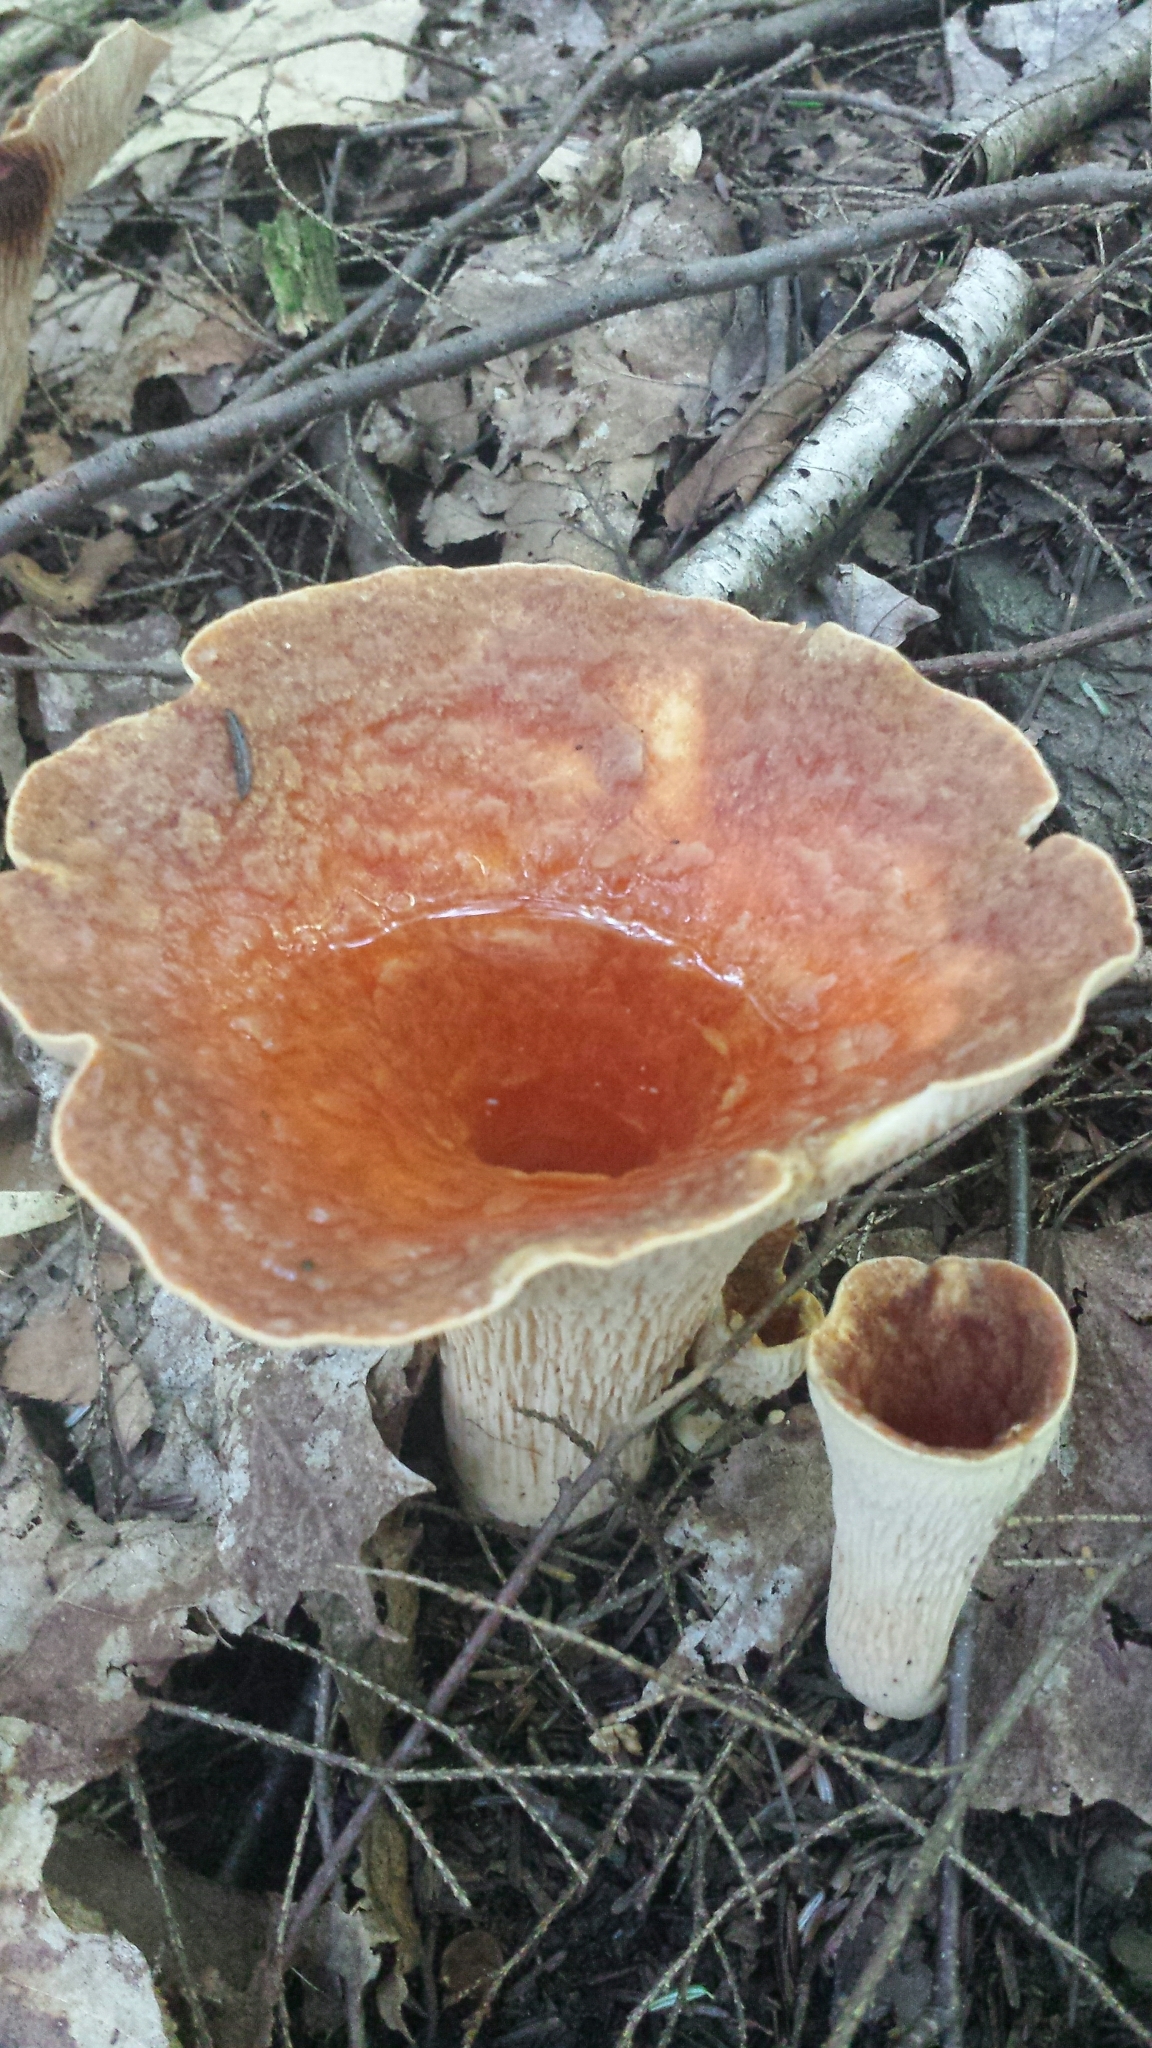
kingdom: Fungi
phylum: Basidiomycota
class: Agaricomycetes
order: Gomphales
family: Gomphaceae
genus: Turbinellus
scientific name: Turbinellus floccosus
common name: Scaly chanterelle
